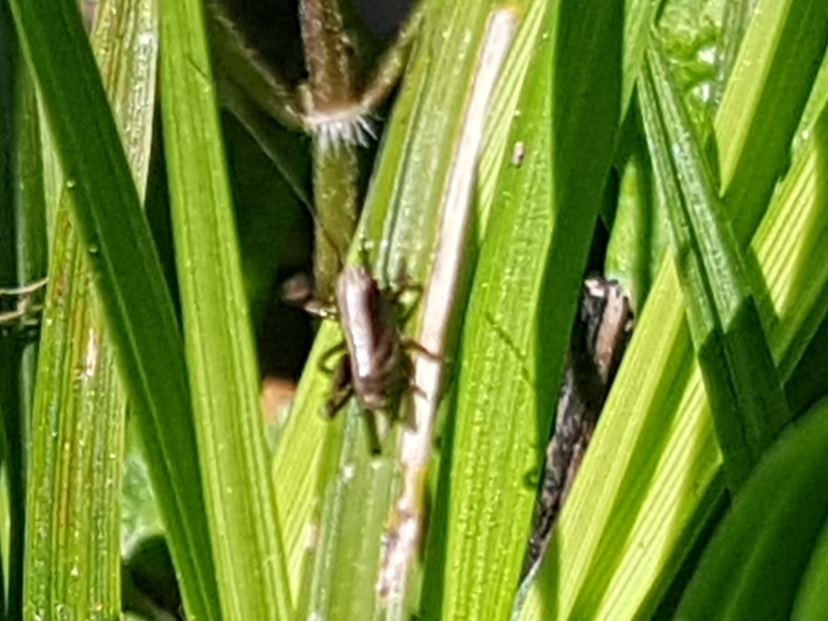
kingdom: Animalia
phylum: Arthropoda
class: Insecta
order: Orthoptera
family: Tettigoniidae
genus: Pholidoptera
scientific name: Pholidoptera griseoaptera
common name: Dark bush-cricket
